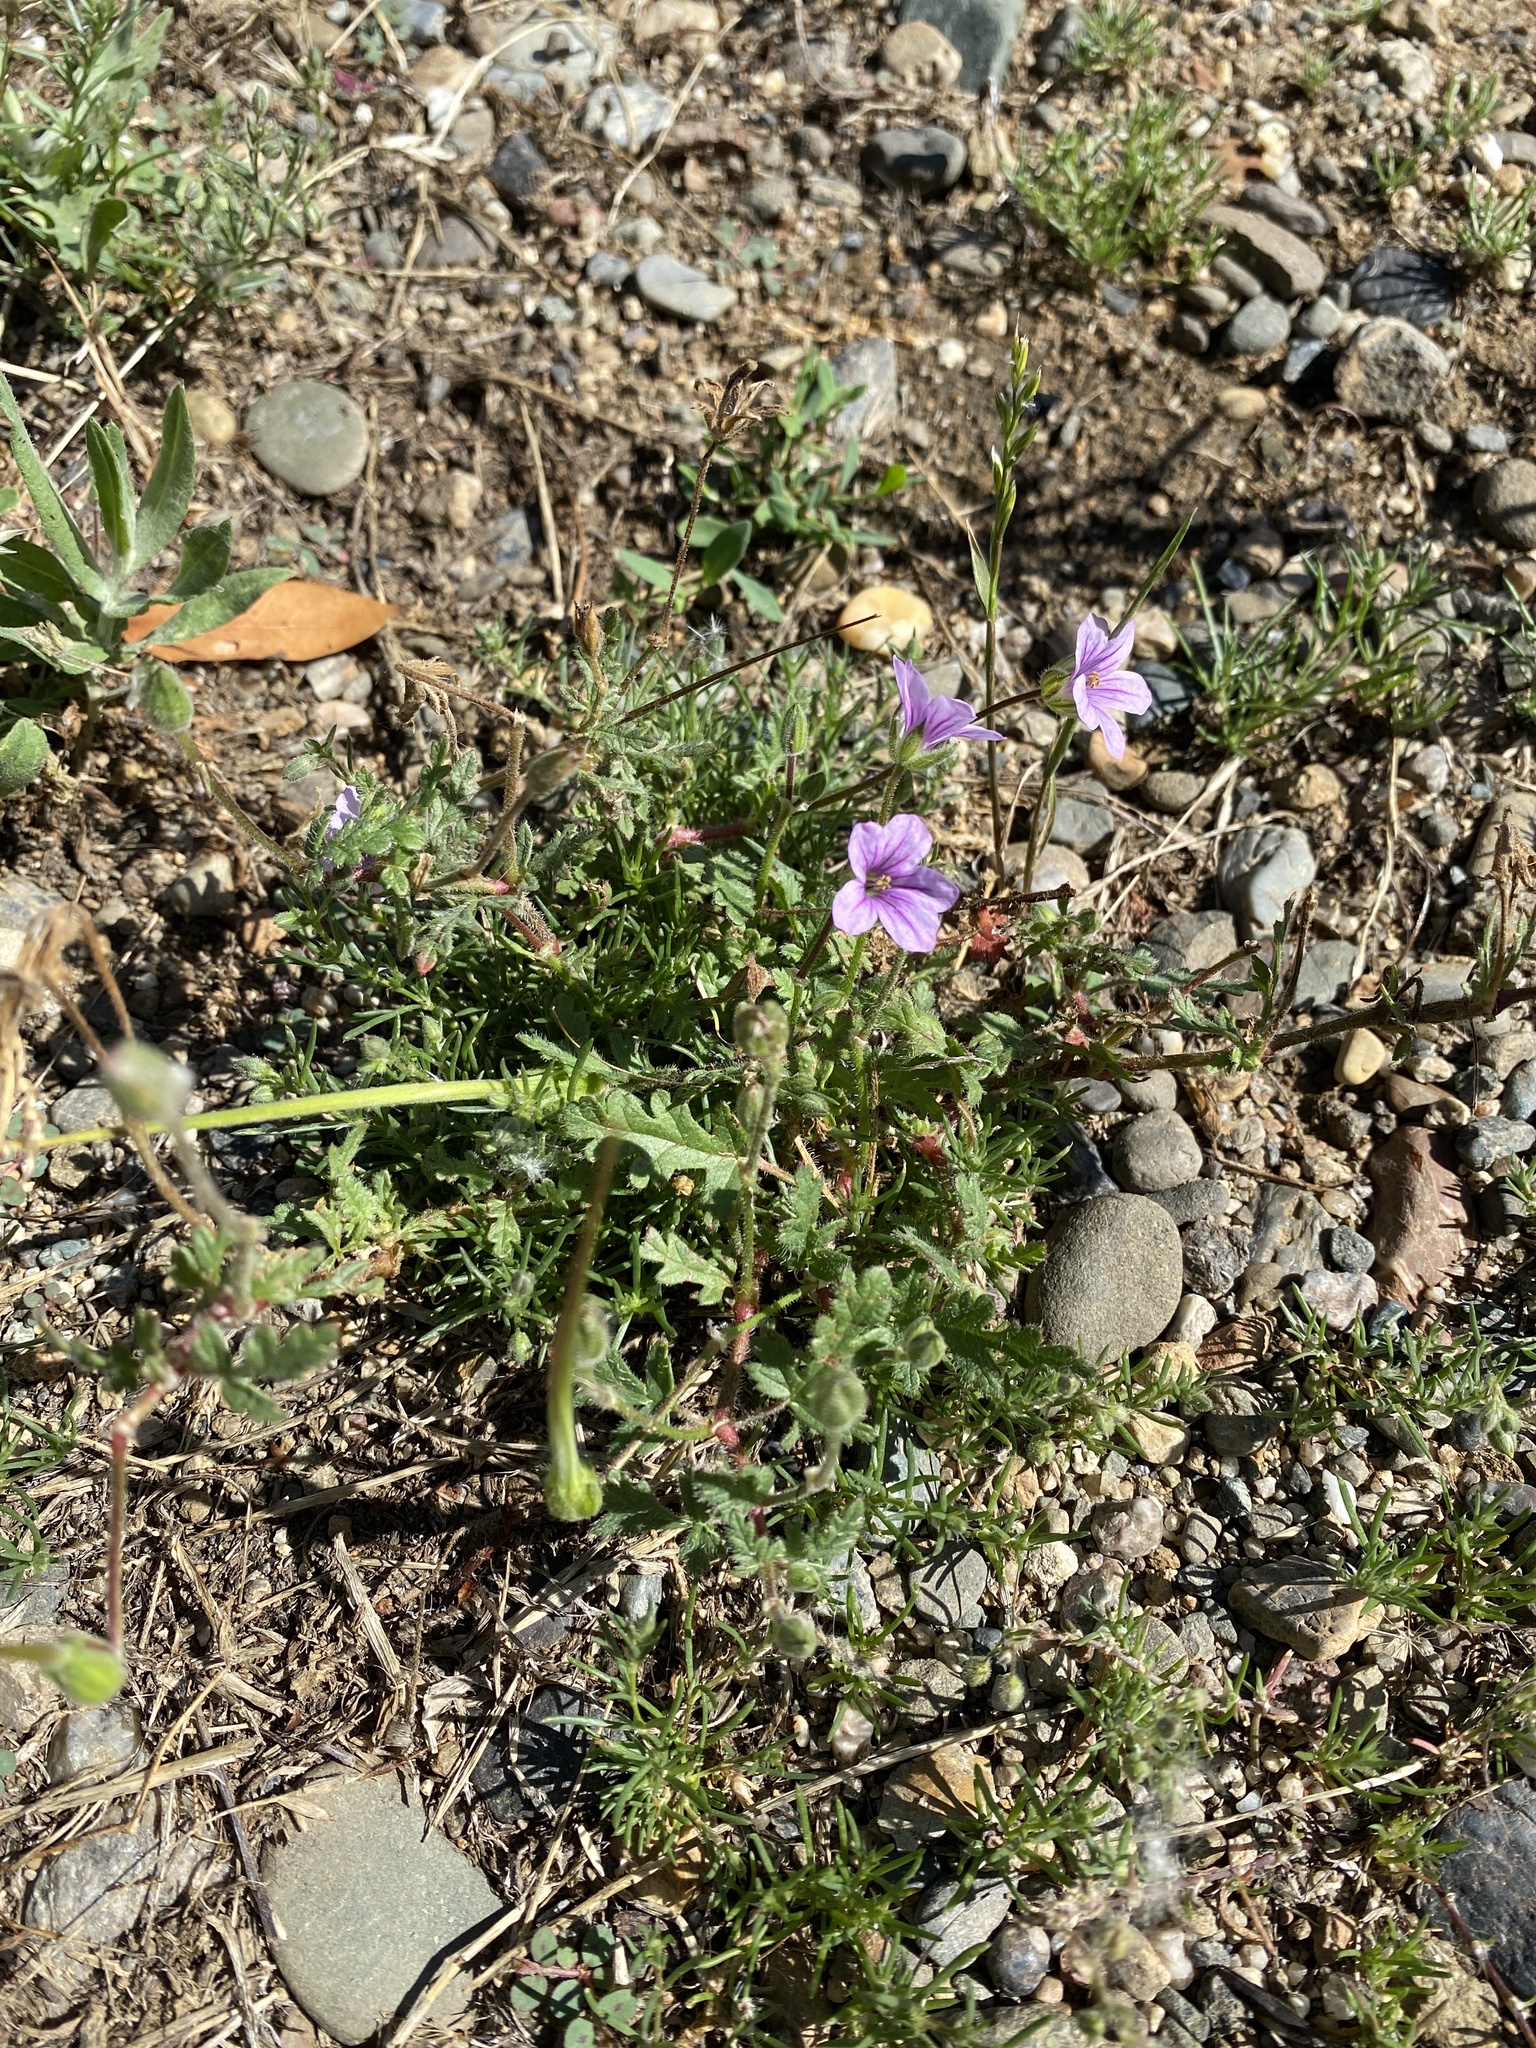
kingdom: Plantae
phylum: Tracheophyta
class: Magnoliopsida
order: Geraniales
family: Geraniaceae
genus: Erodium
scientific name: Erodium botrys
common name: Mediterranean stork's-bill
